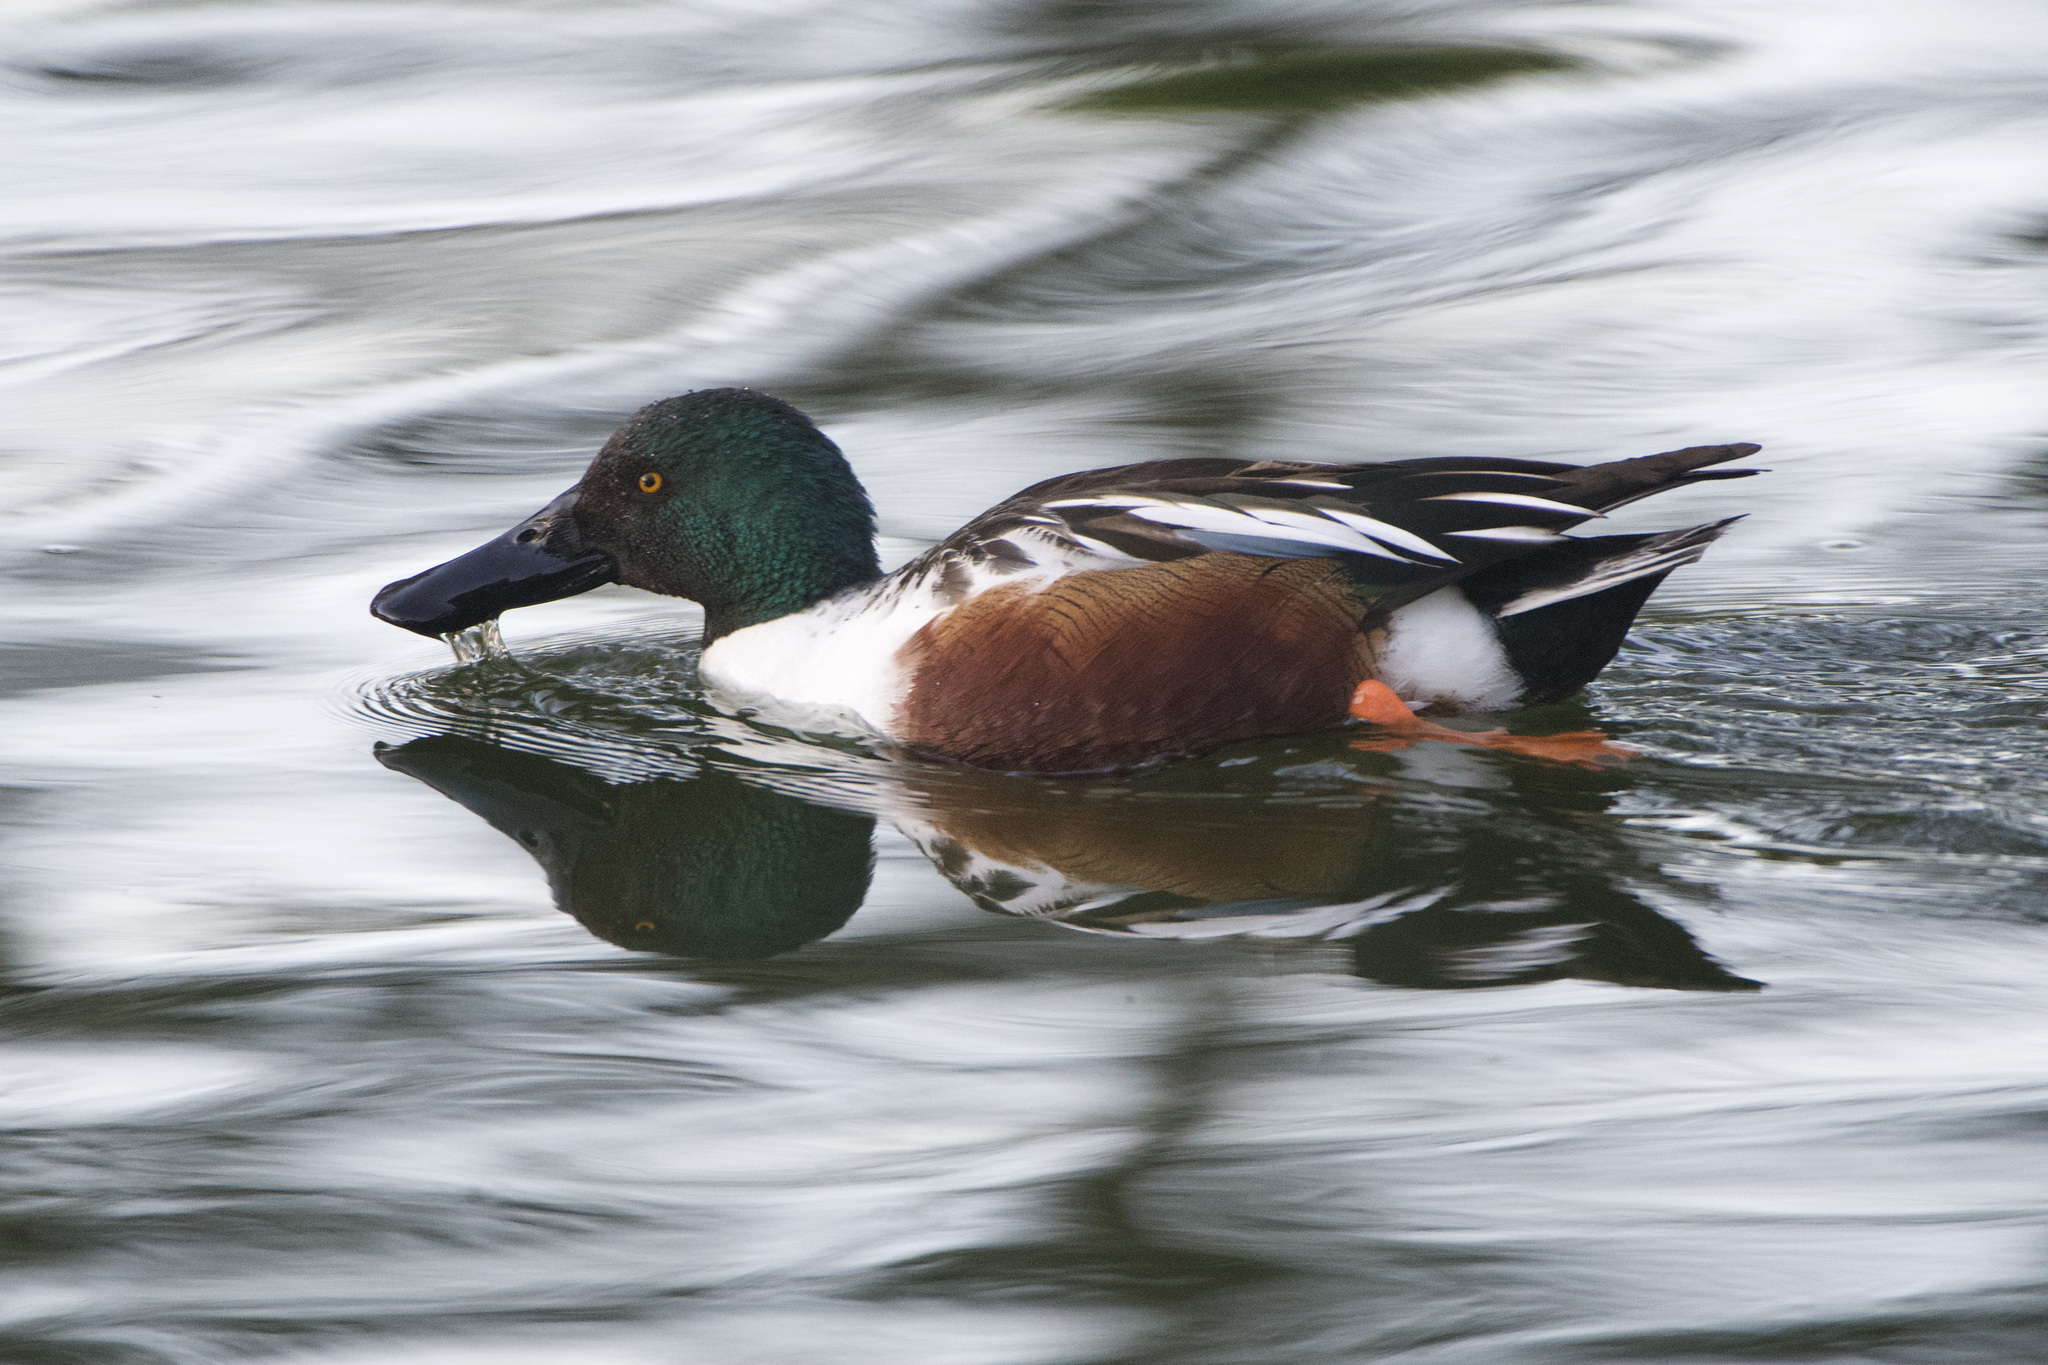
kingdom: Animalia
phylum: Chordata
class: Aves
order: Anseriformes
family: Anatidae
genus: Spatula
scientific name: Spatula clypeata
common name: Northern shoveler
